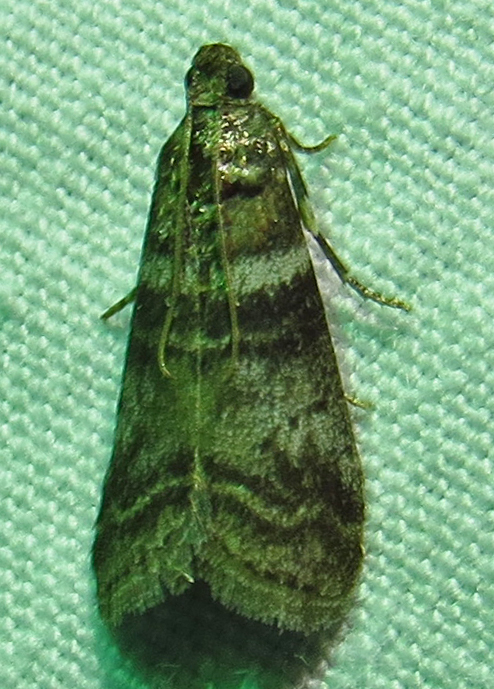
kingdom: Animalia
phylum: Arthropoda
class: Insecta
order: Lepidoptera
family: Pyralidae
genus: Sciota
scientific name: Sciota uvinella
